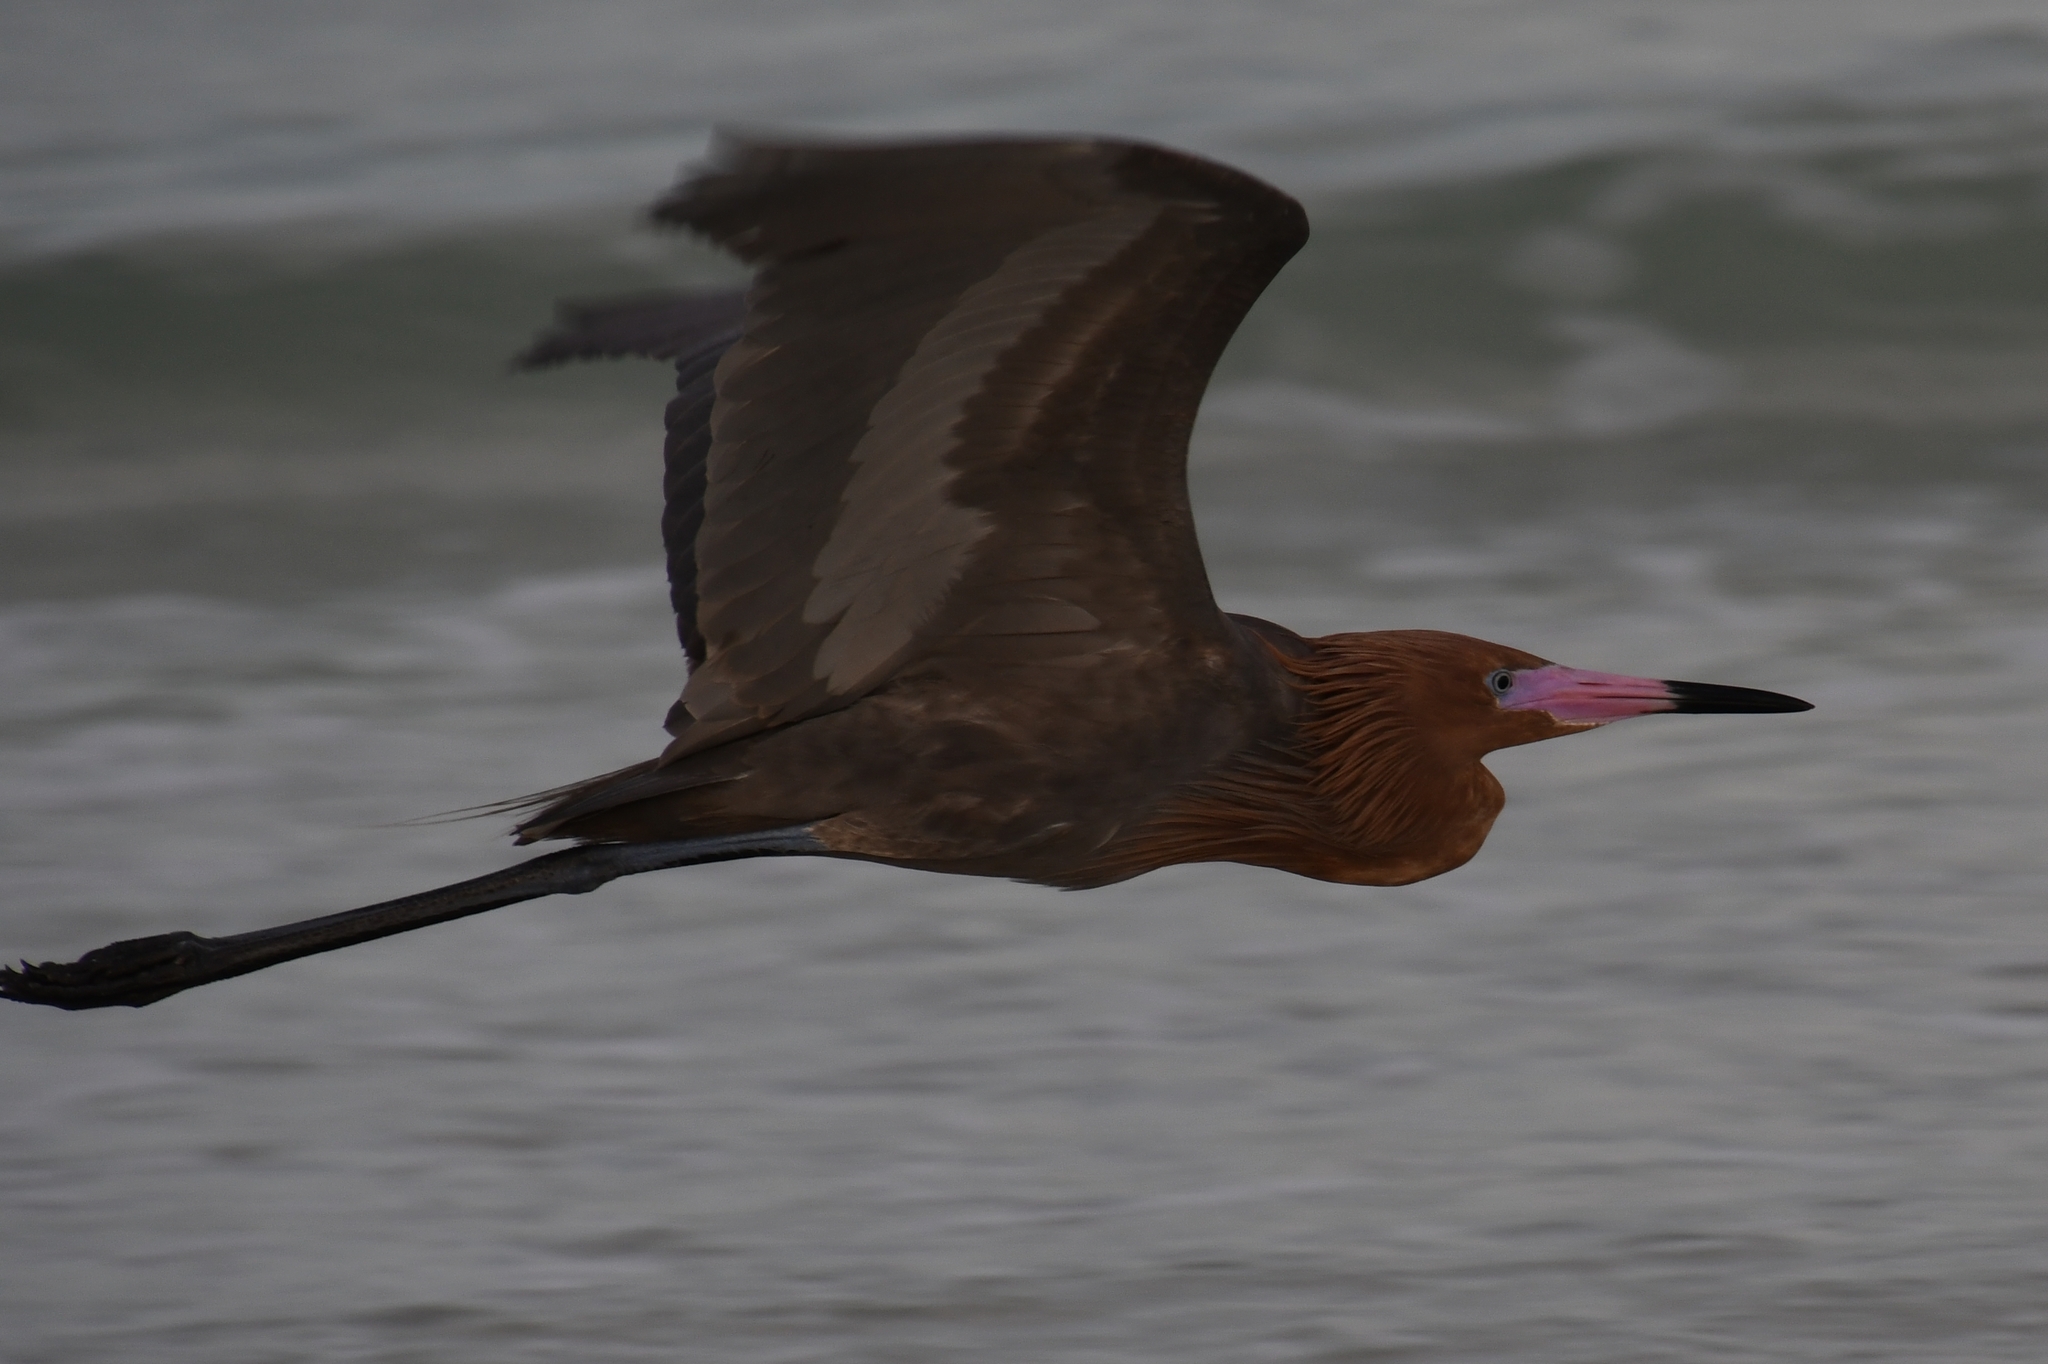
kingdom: Animalia
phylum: Chordata
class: Aves
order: Pelecaniformes
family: Ardeidae
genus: Egretta
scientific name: Egretta rufescens
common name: Reddish egret
